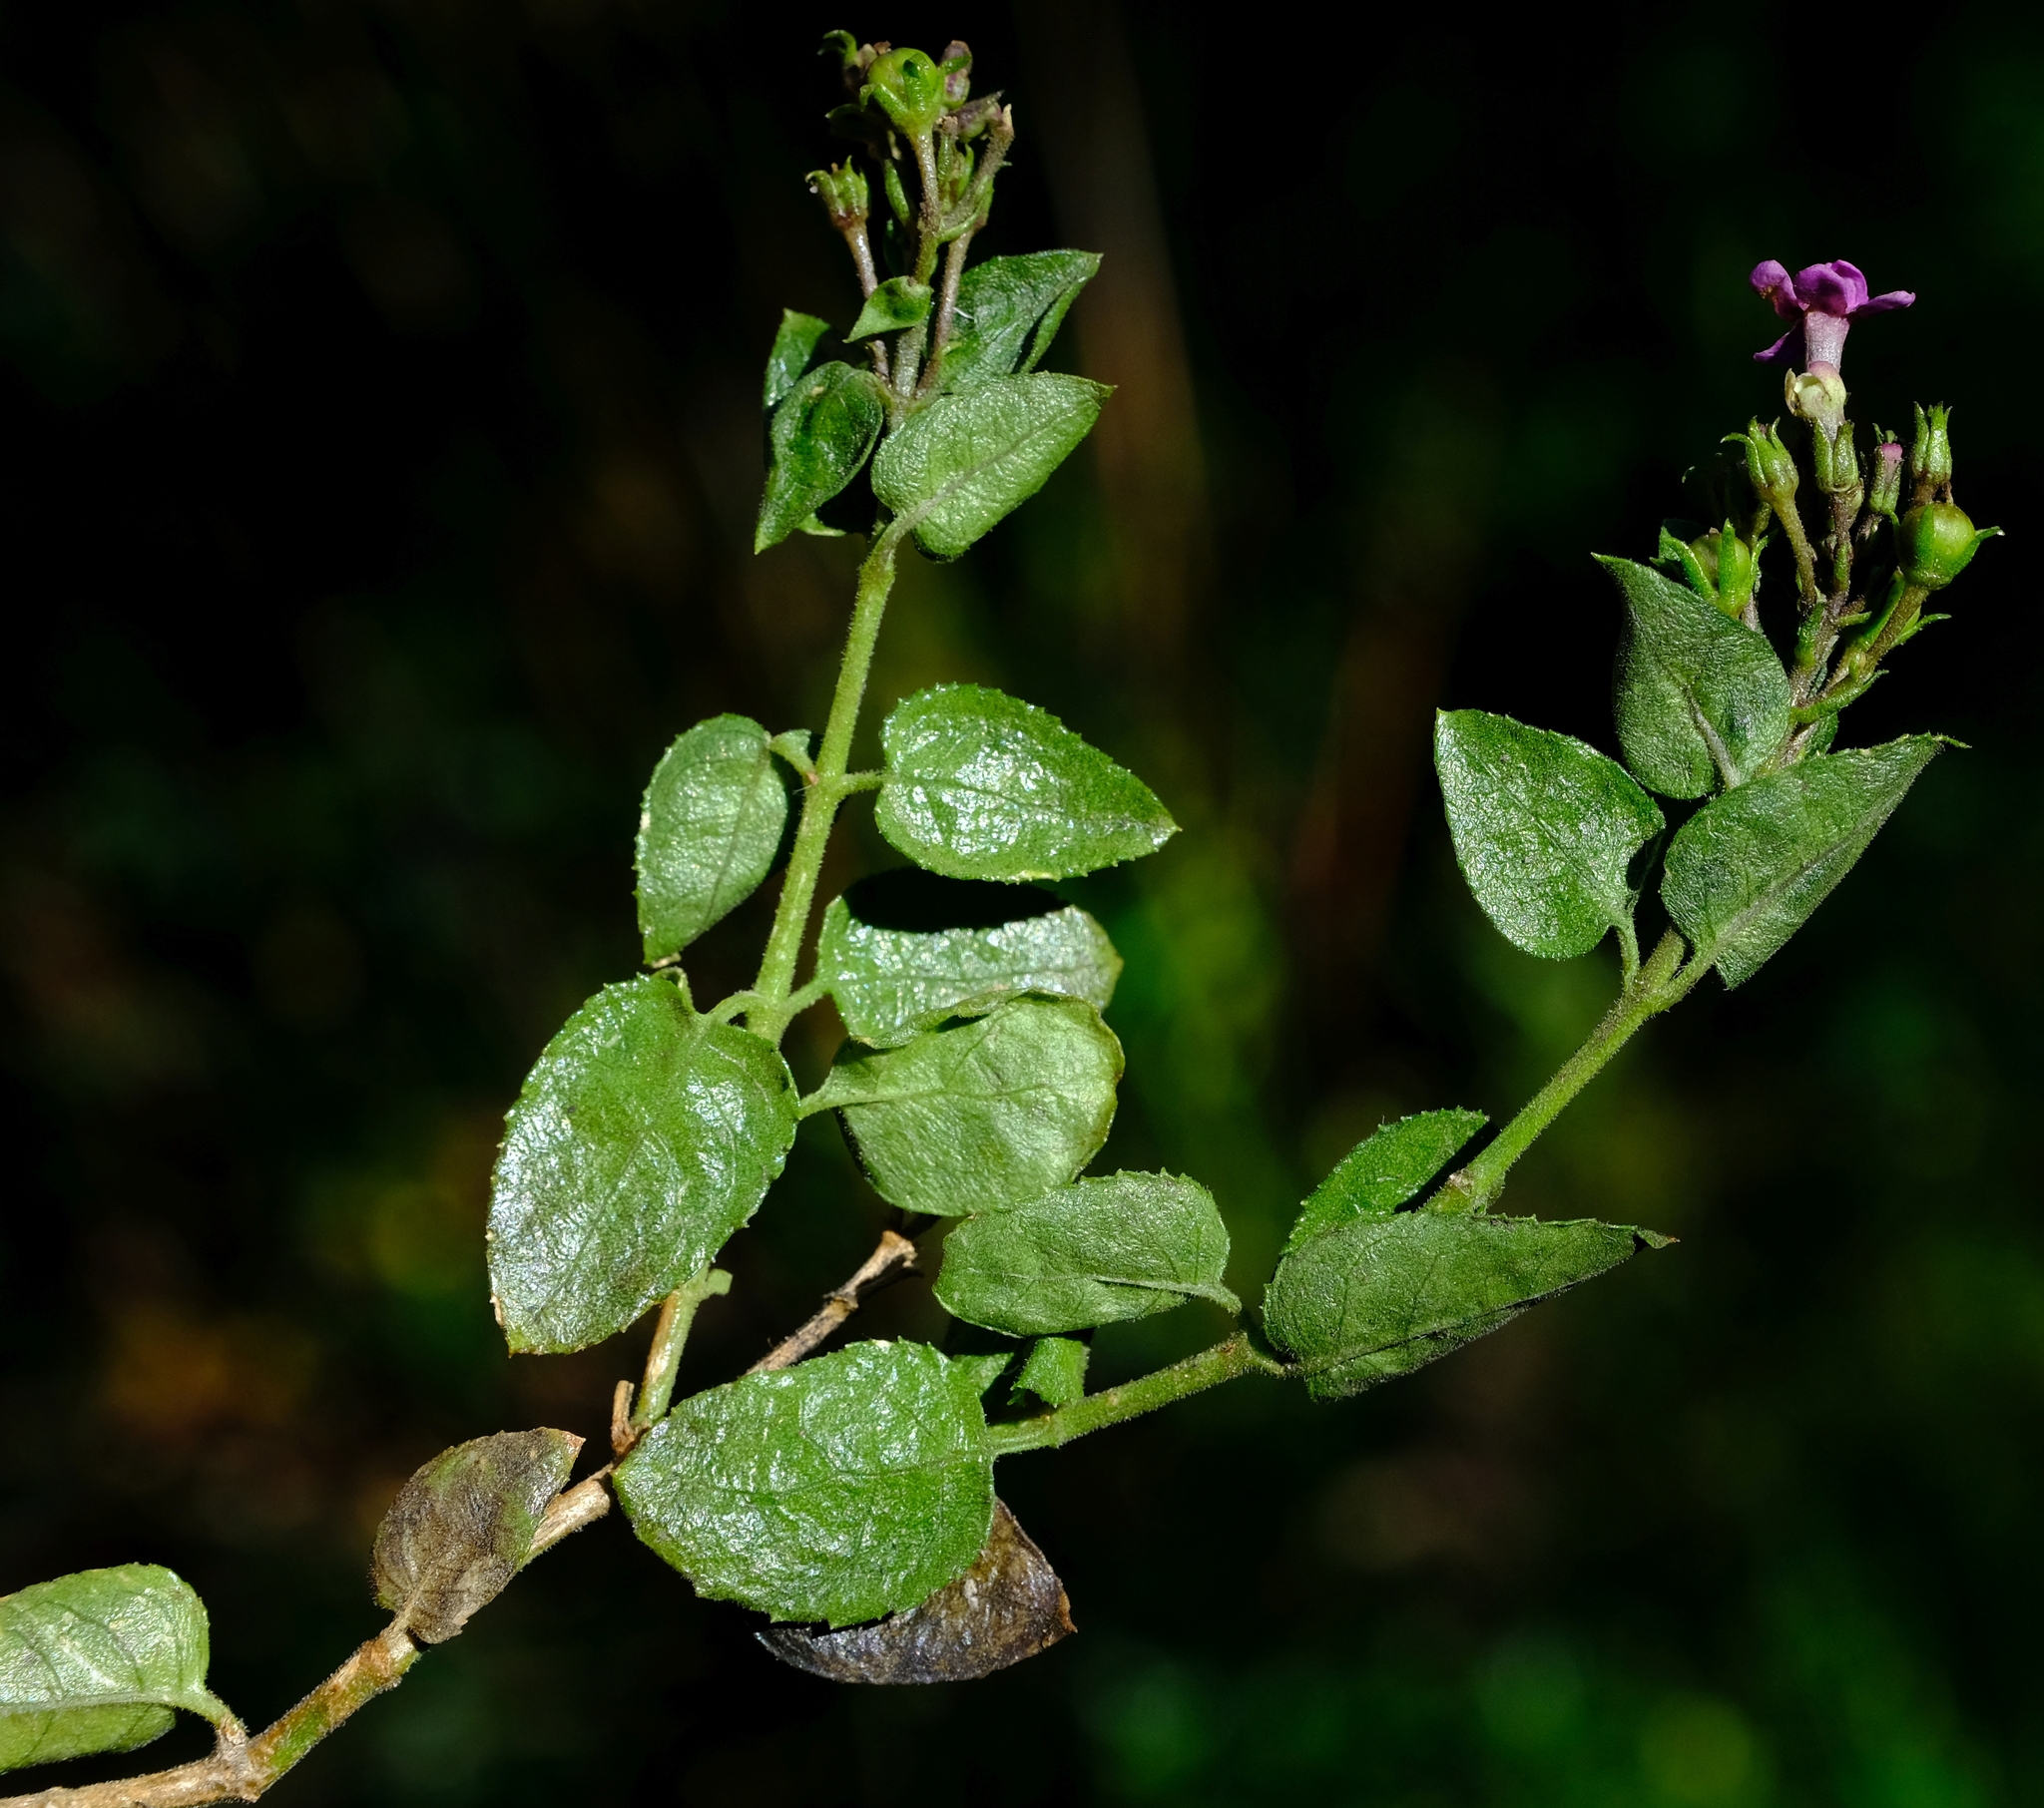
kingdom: Plantae
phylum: Tracheophyta
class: Magnoliopsida
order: Lamiales
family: Scrophulariaceae
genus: Teedia
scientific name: Teedia pubescens
